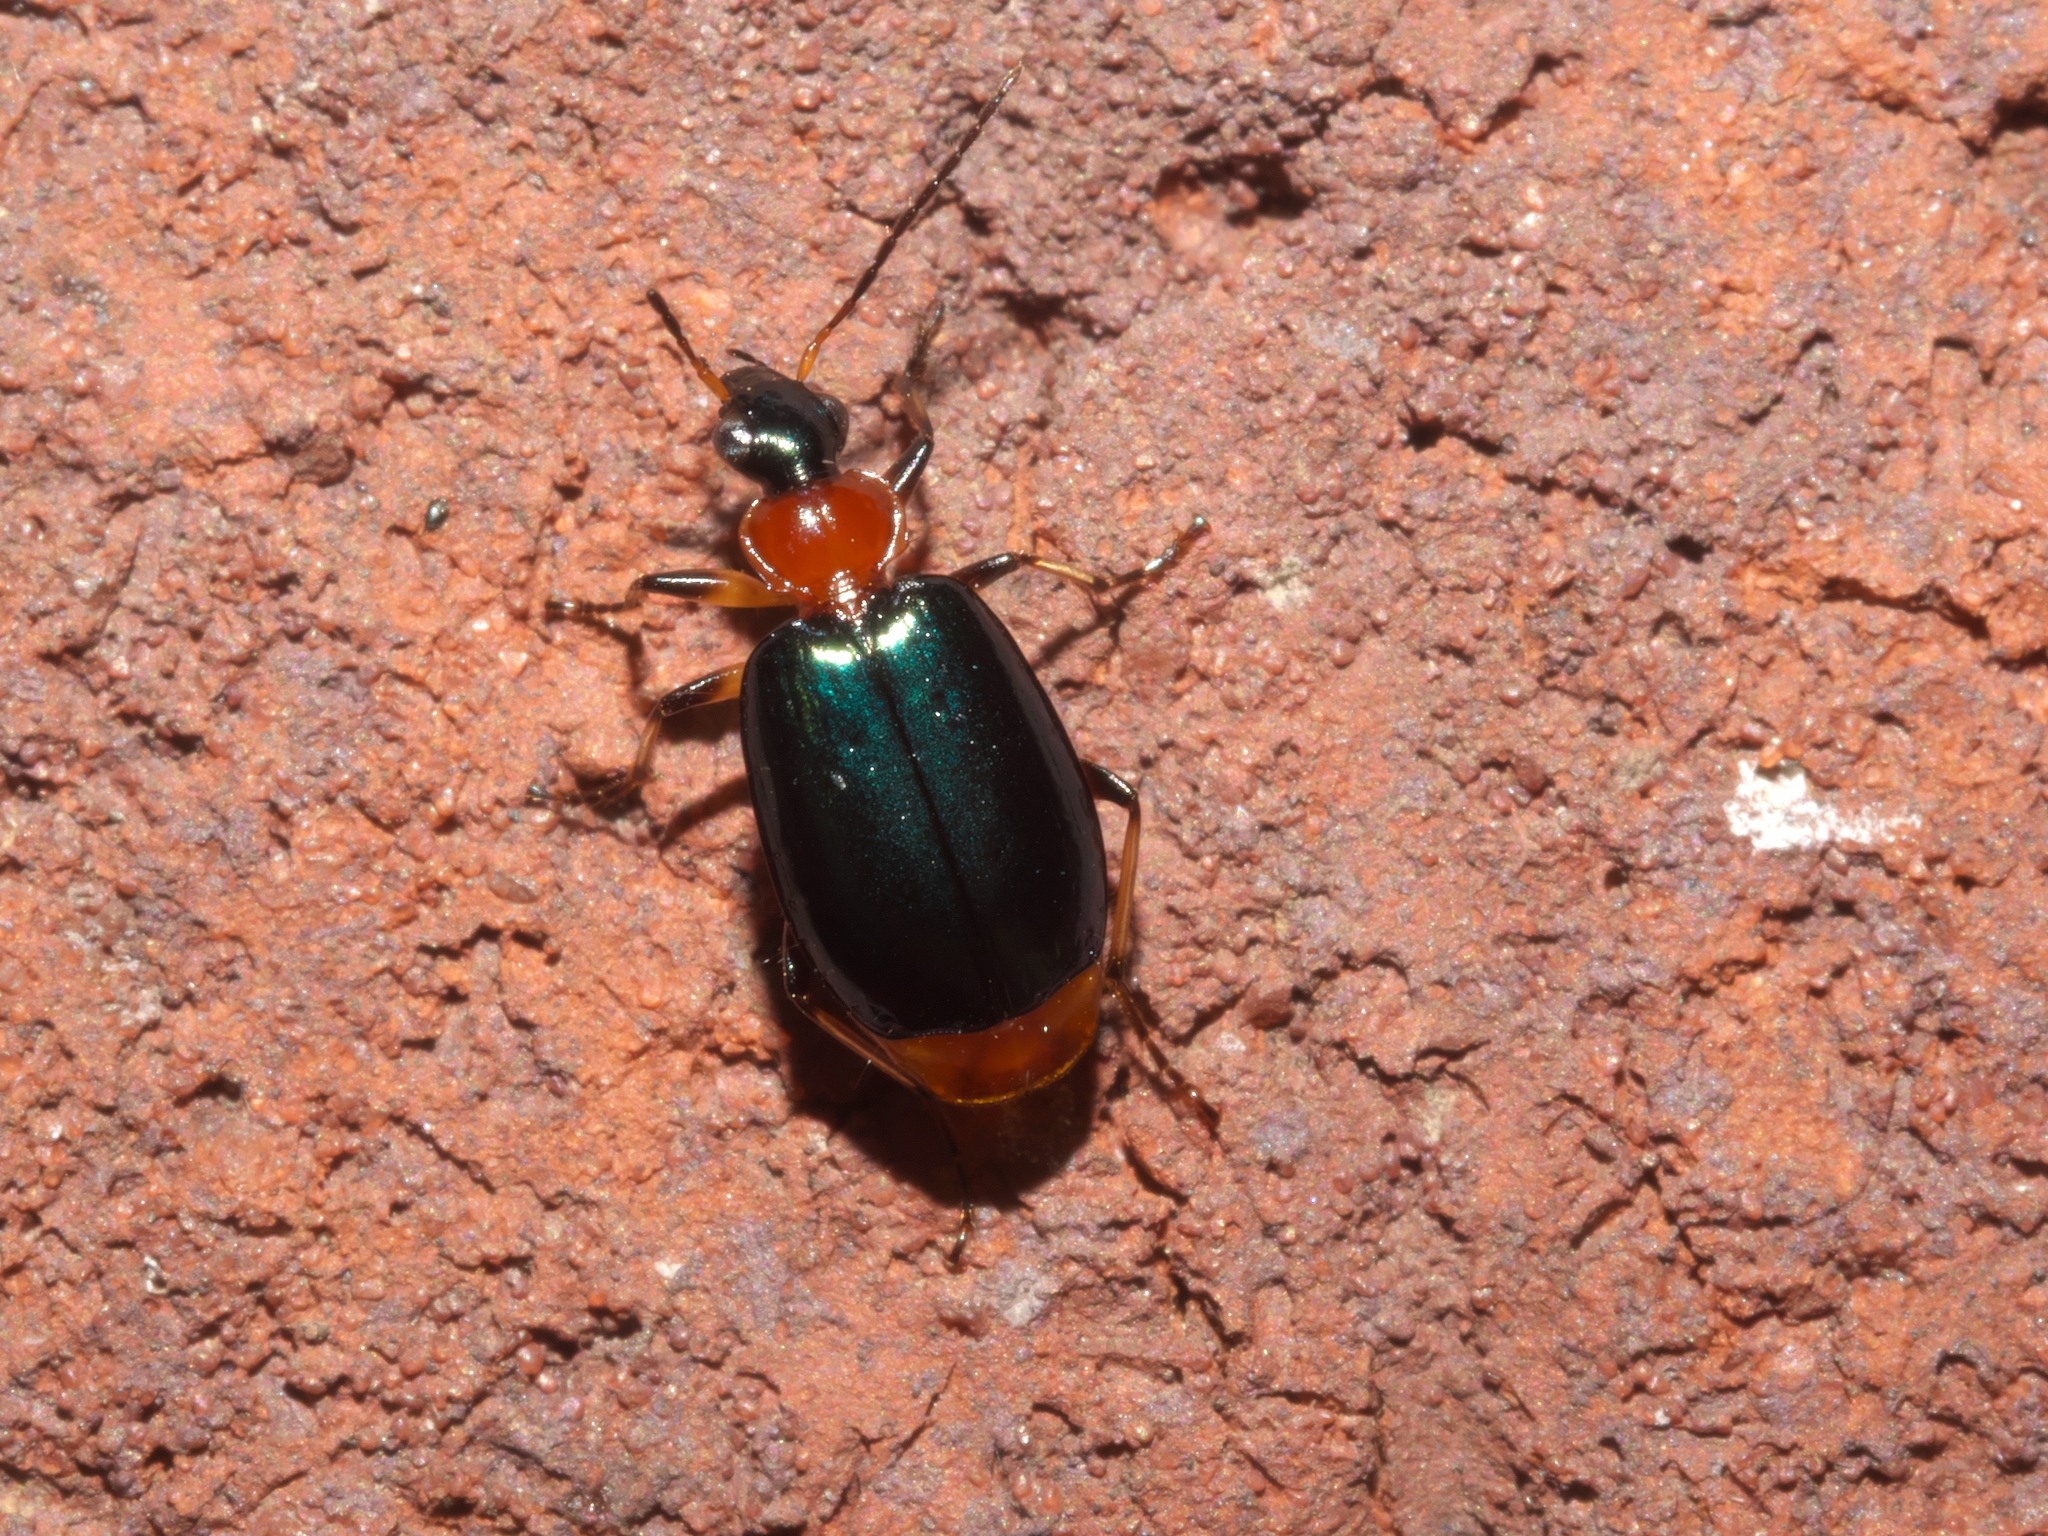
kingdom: Animalia
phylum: Arthropoda
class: Insecta
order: Coleoptera
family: Carabidae
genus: Lebia
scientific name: Lebia viridipennis
